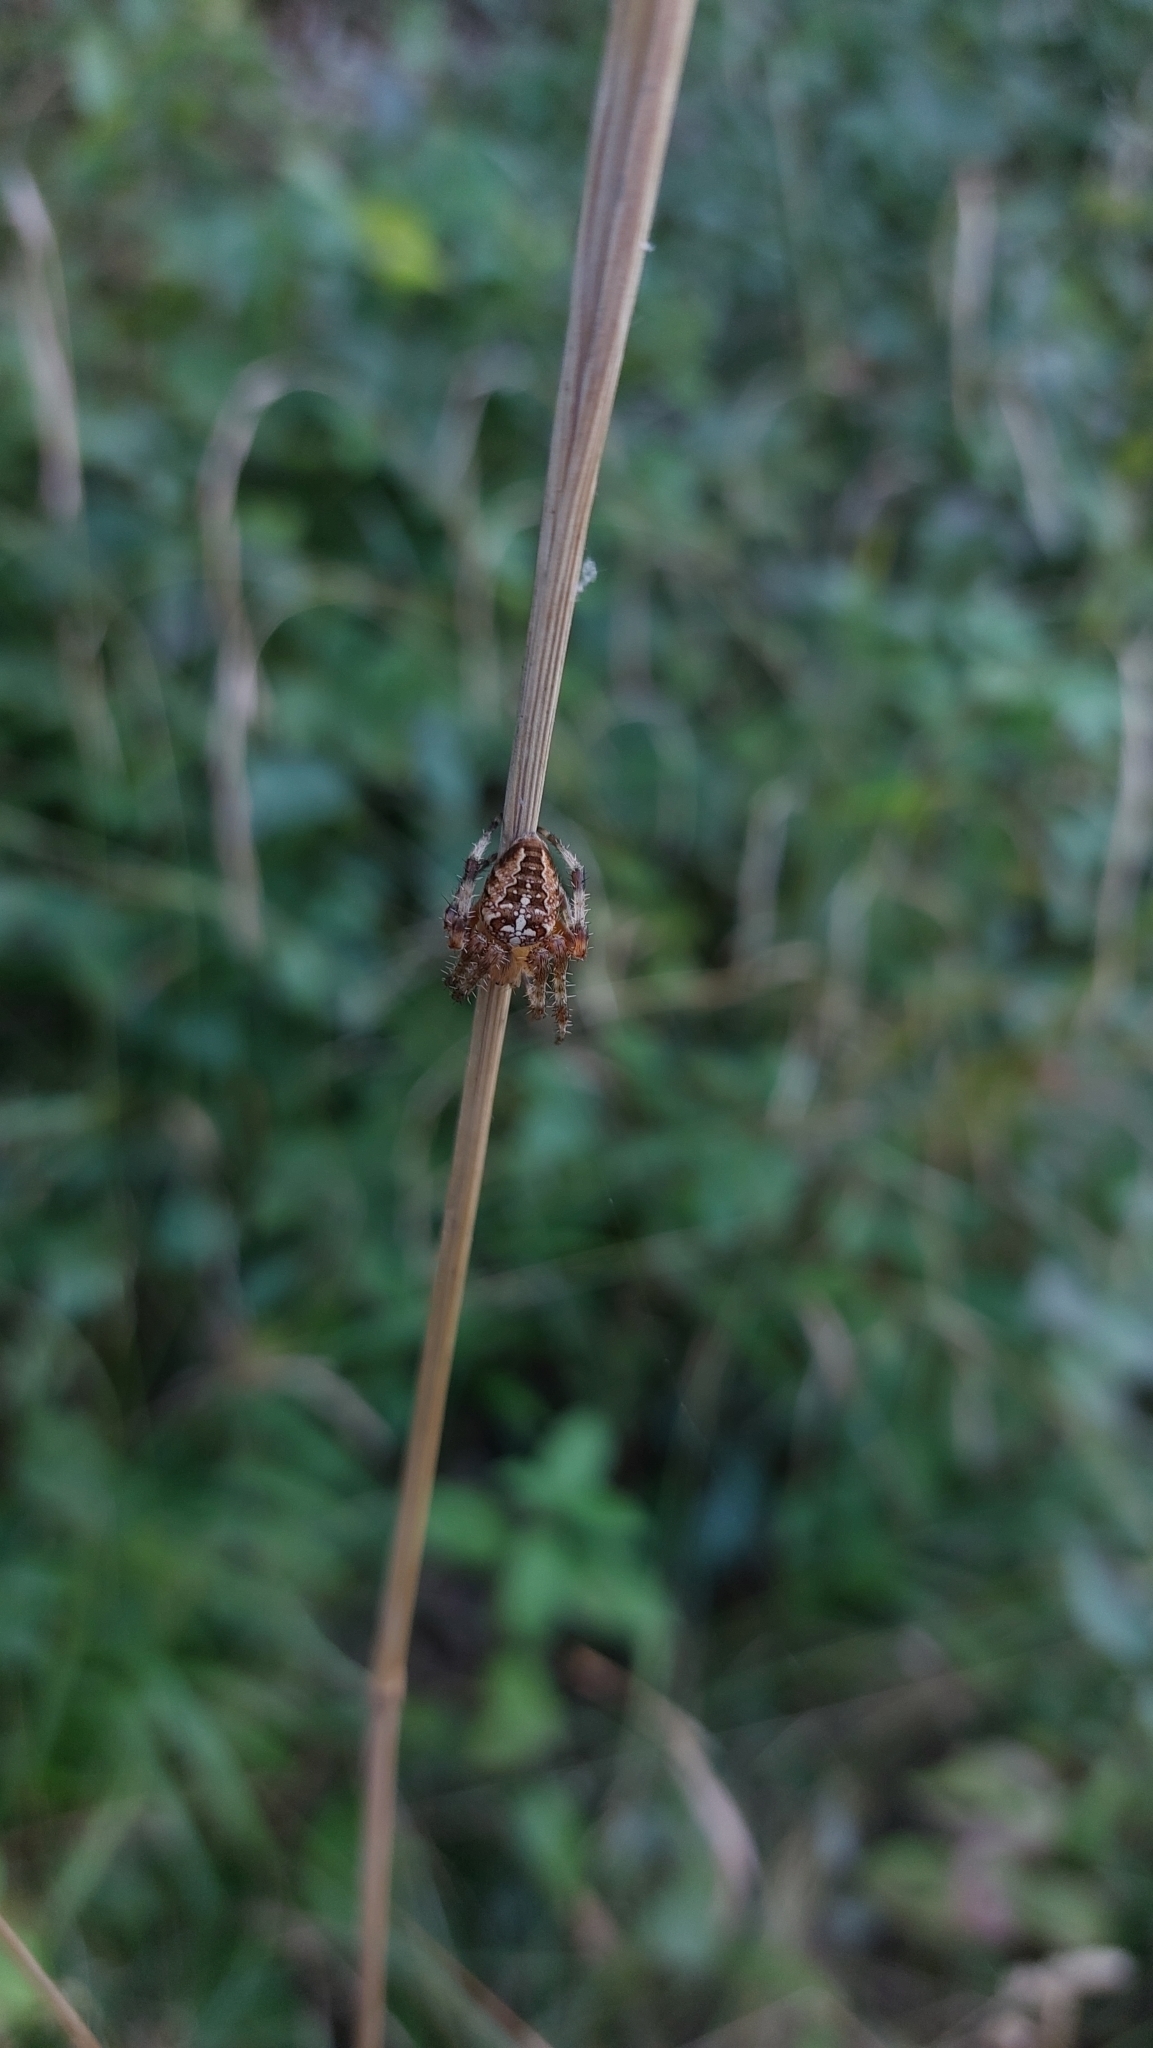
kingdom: Animalia
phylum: Arthropoda
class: Arachnida
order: Araneae
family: Araneidae
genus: Araneus
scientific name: Araneus diadematus
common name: Cross orbweaver
